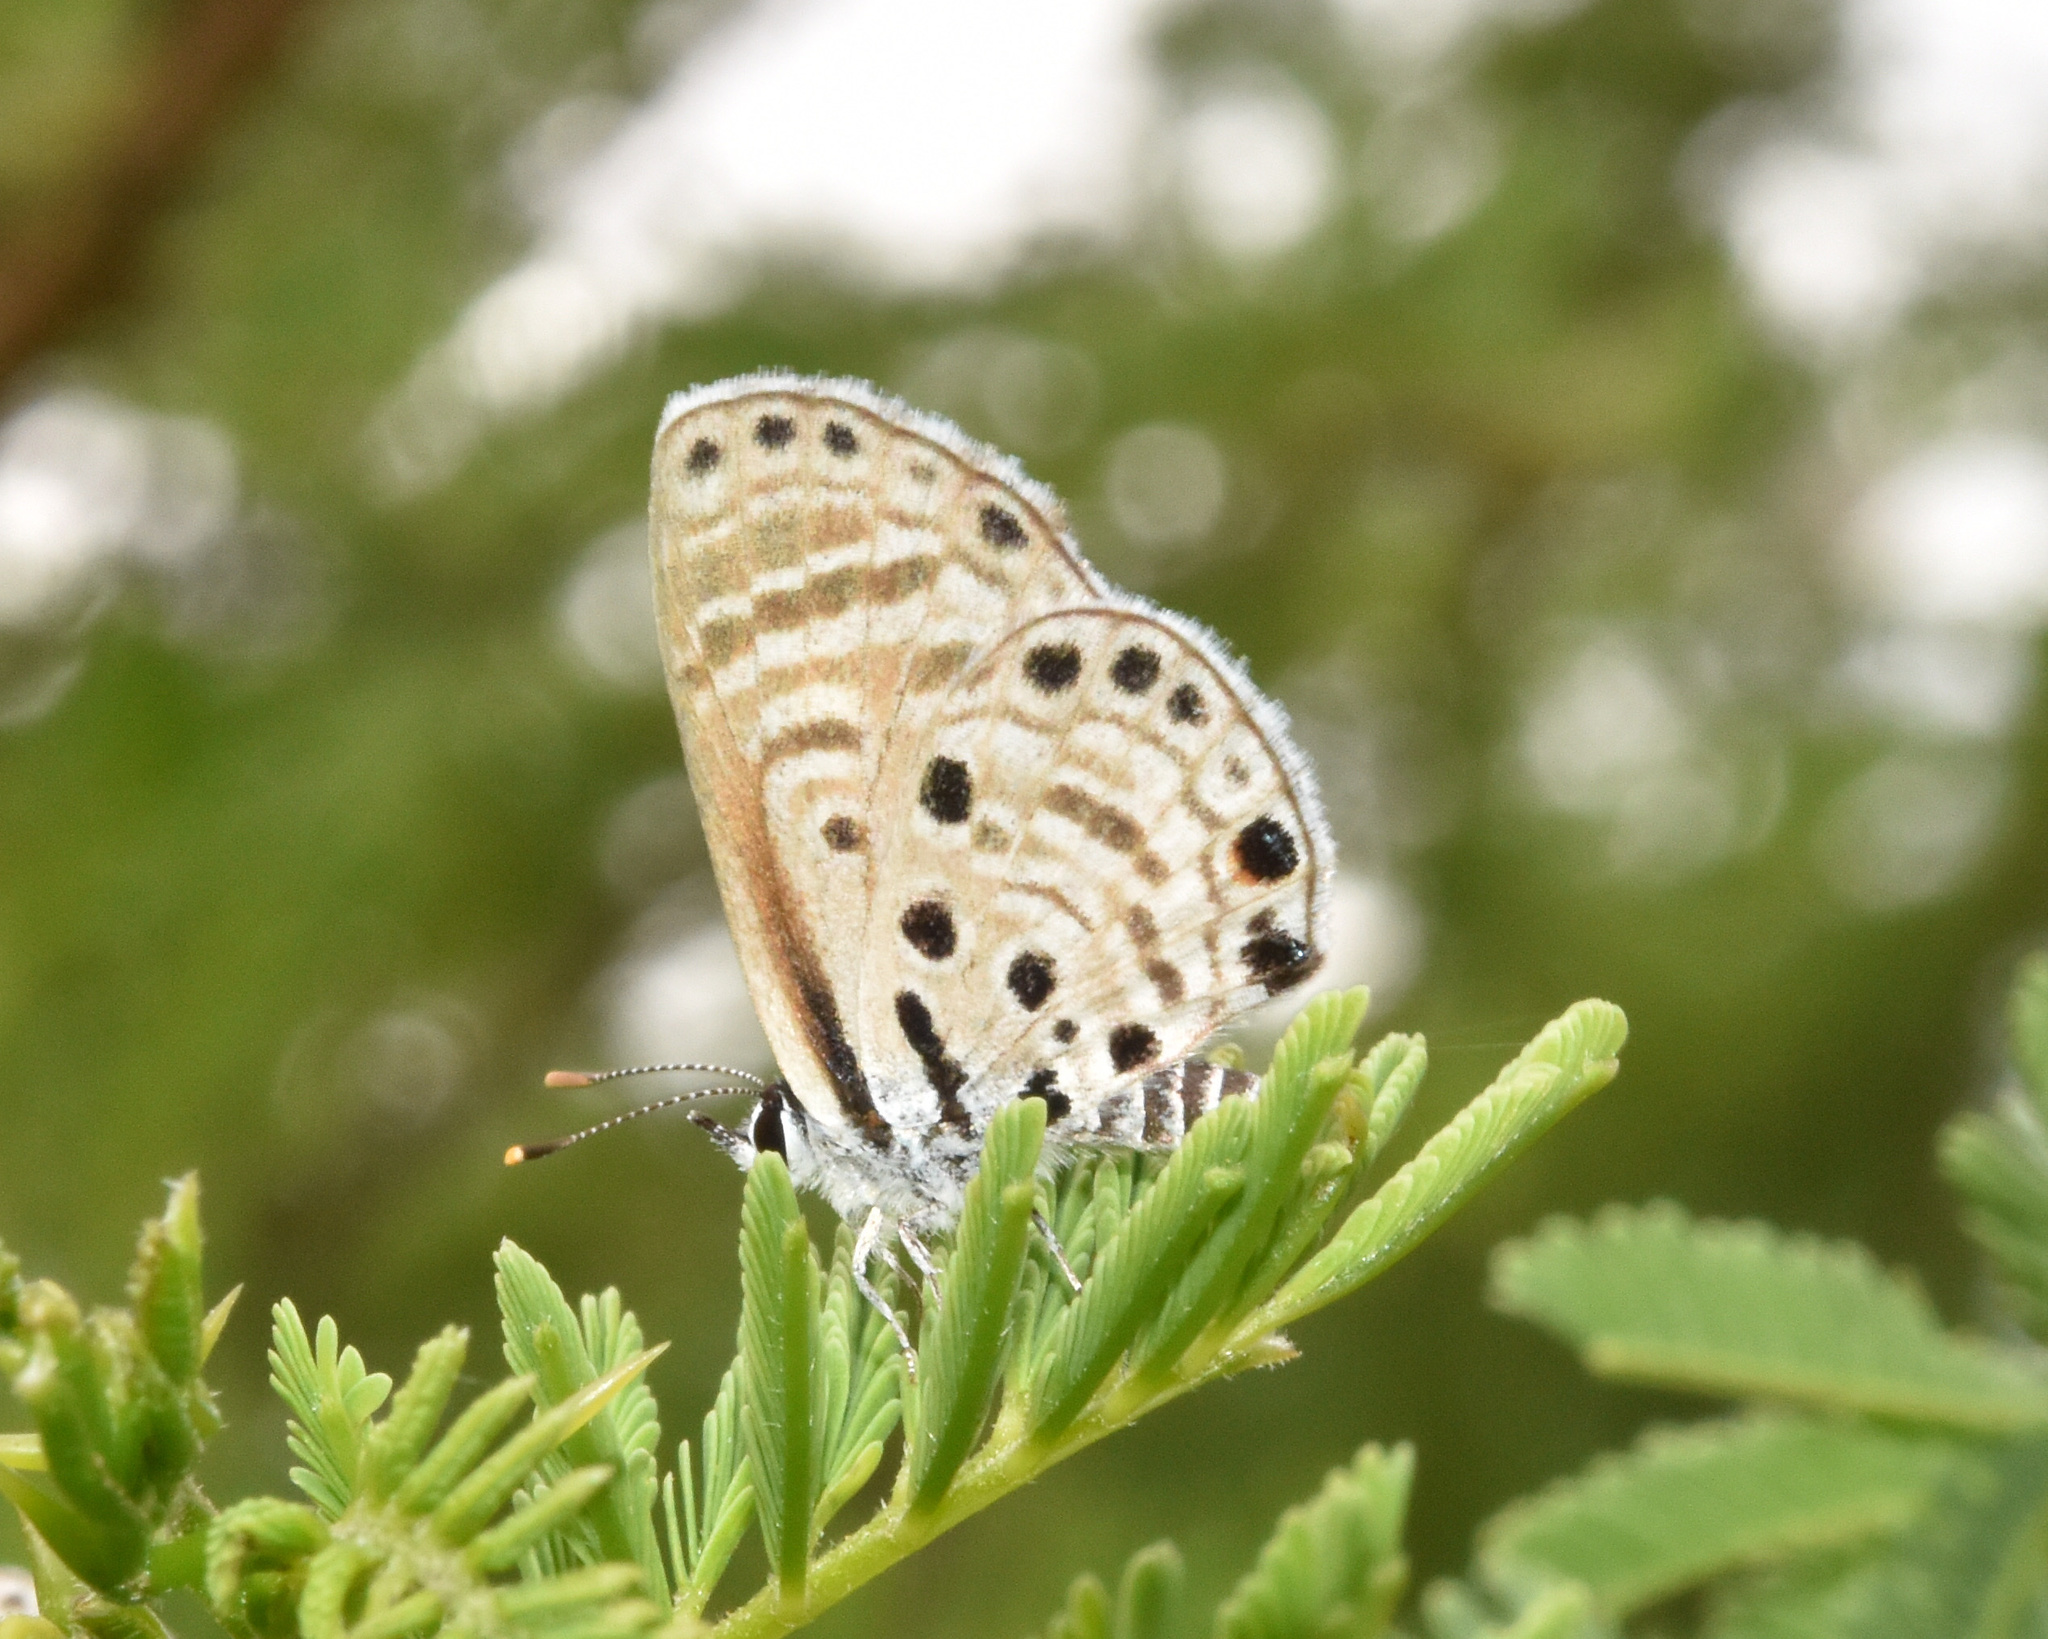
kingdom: Animalia
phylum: Arthropoda
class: Insecta
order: Lepidoptera
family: Lycaenidae
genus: Azanus
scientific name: Azanus jesous
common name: African babul blue
